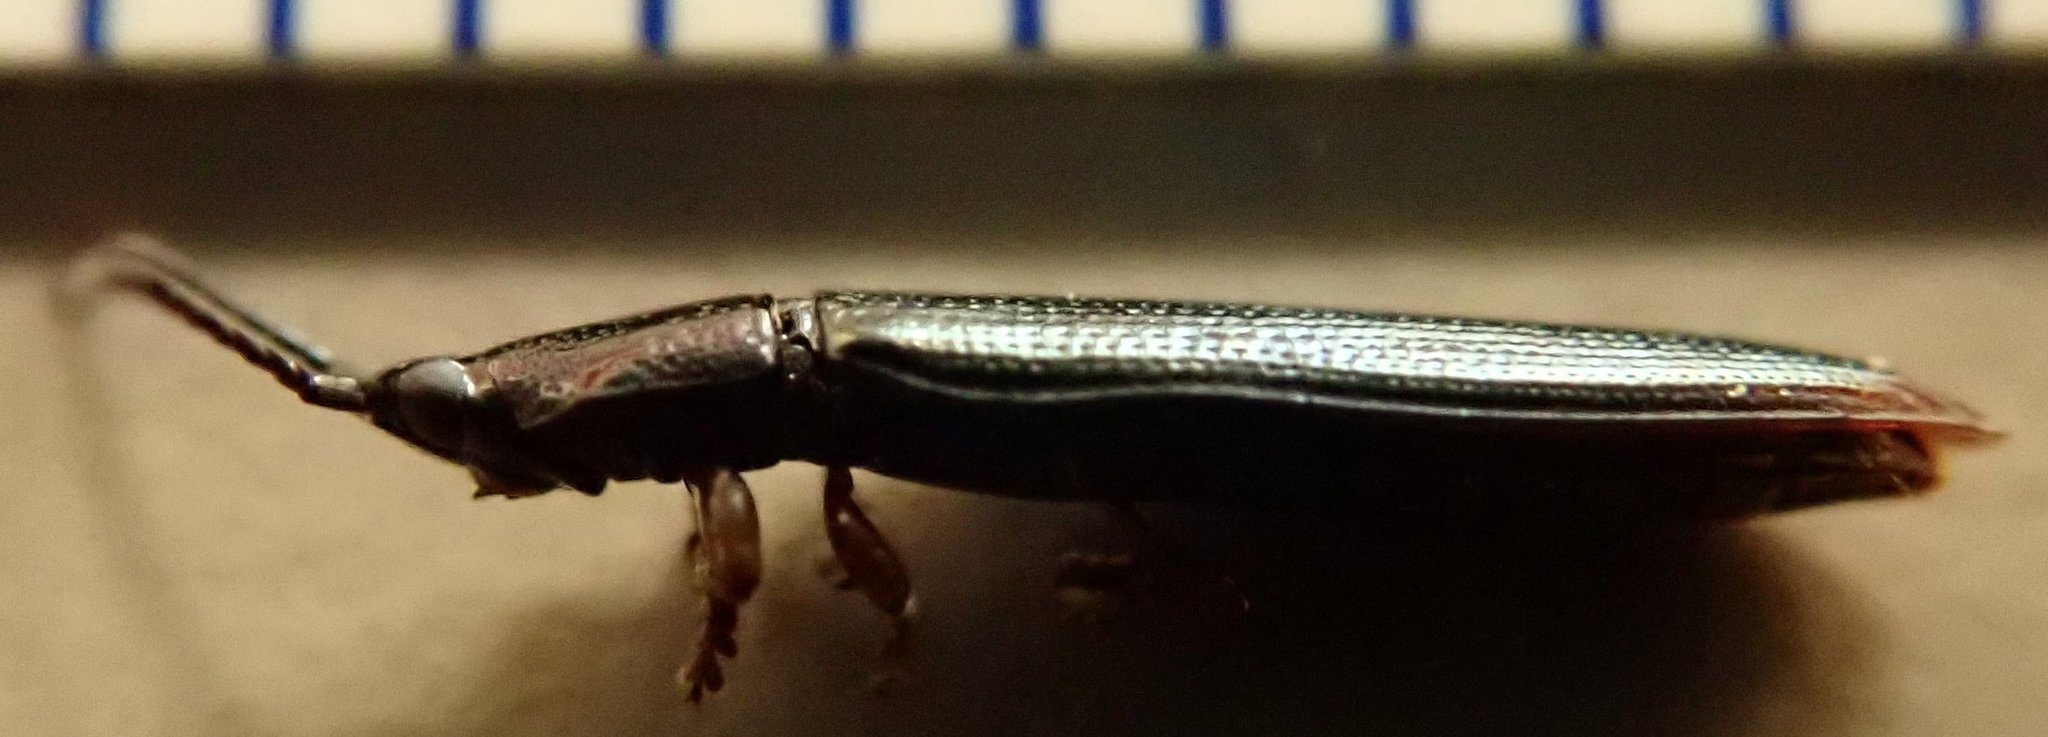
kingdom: Animalia
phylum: Arthropoda
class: Insecta
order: Coleoptera
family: Chrysomelidae
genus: Brontispa
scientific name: Brontispa chalybeipennis
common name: Tortoise beetle
